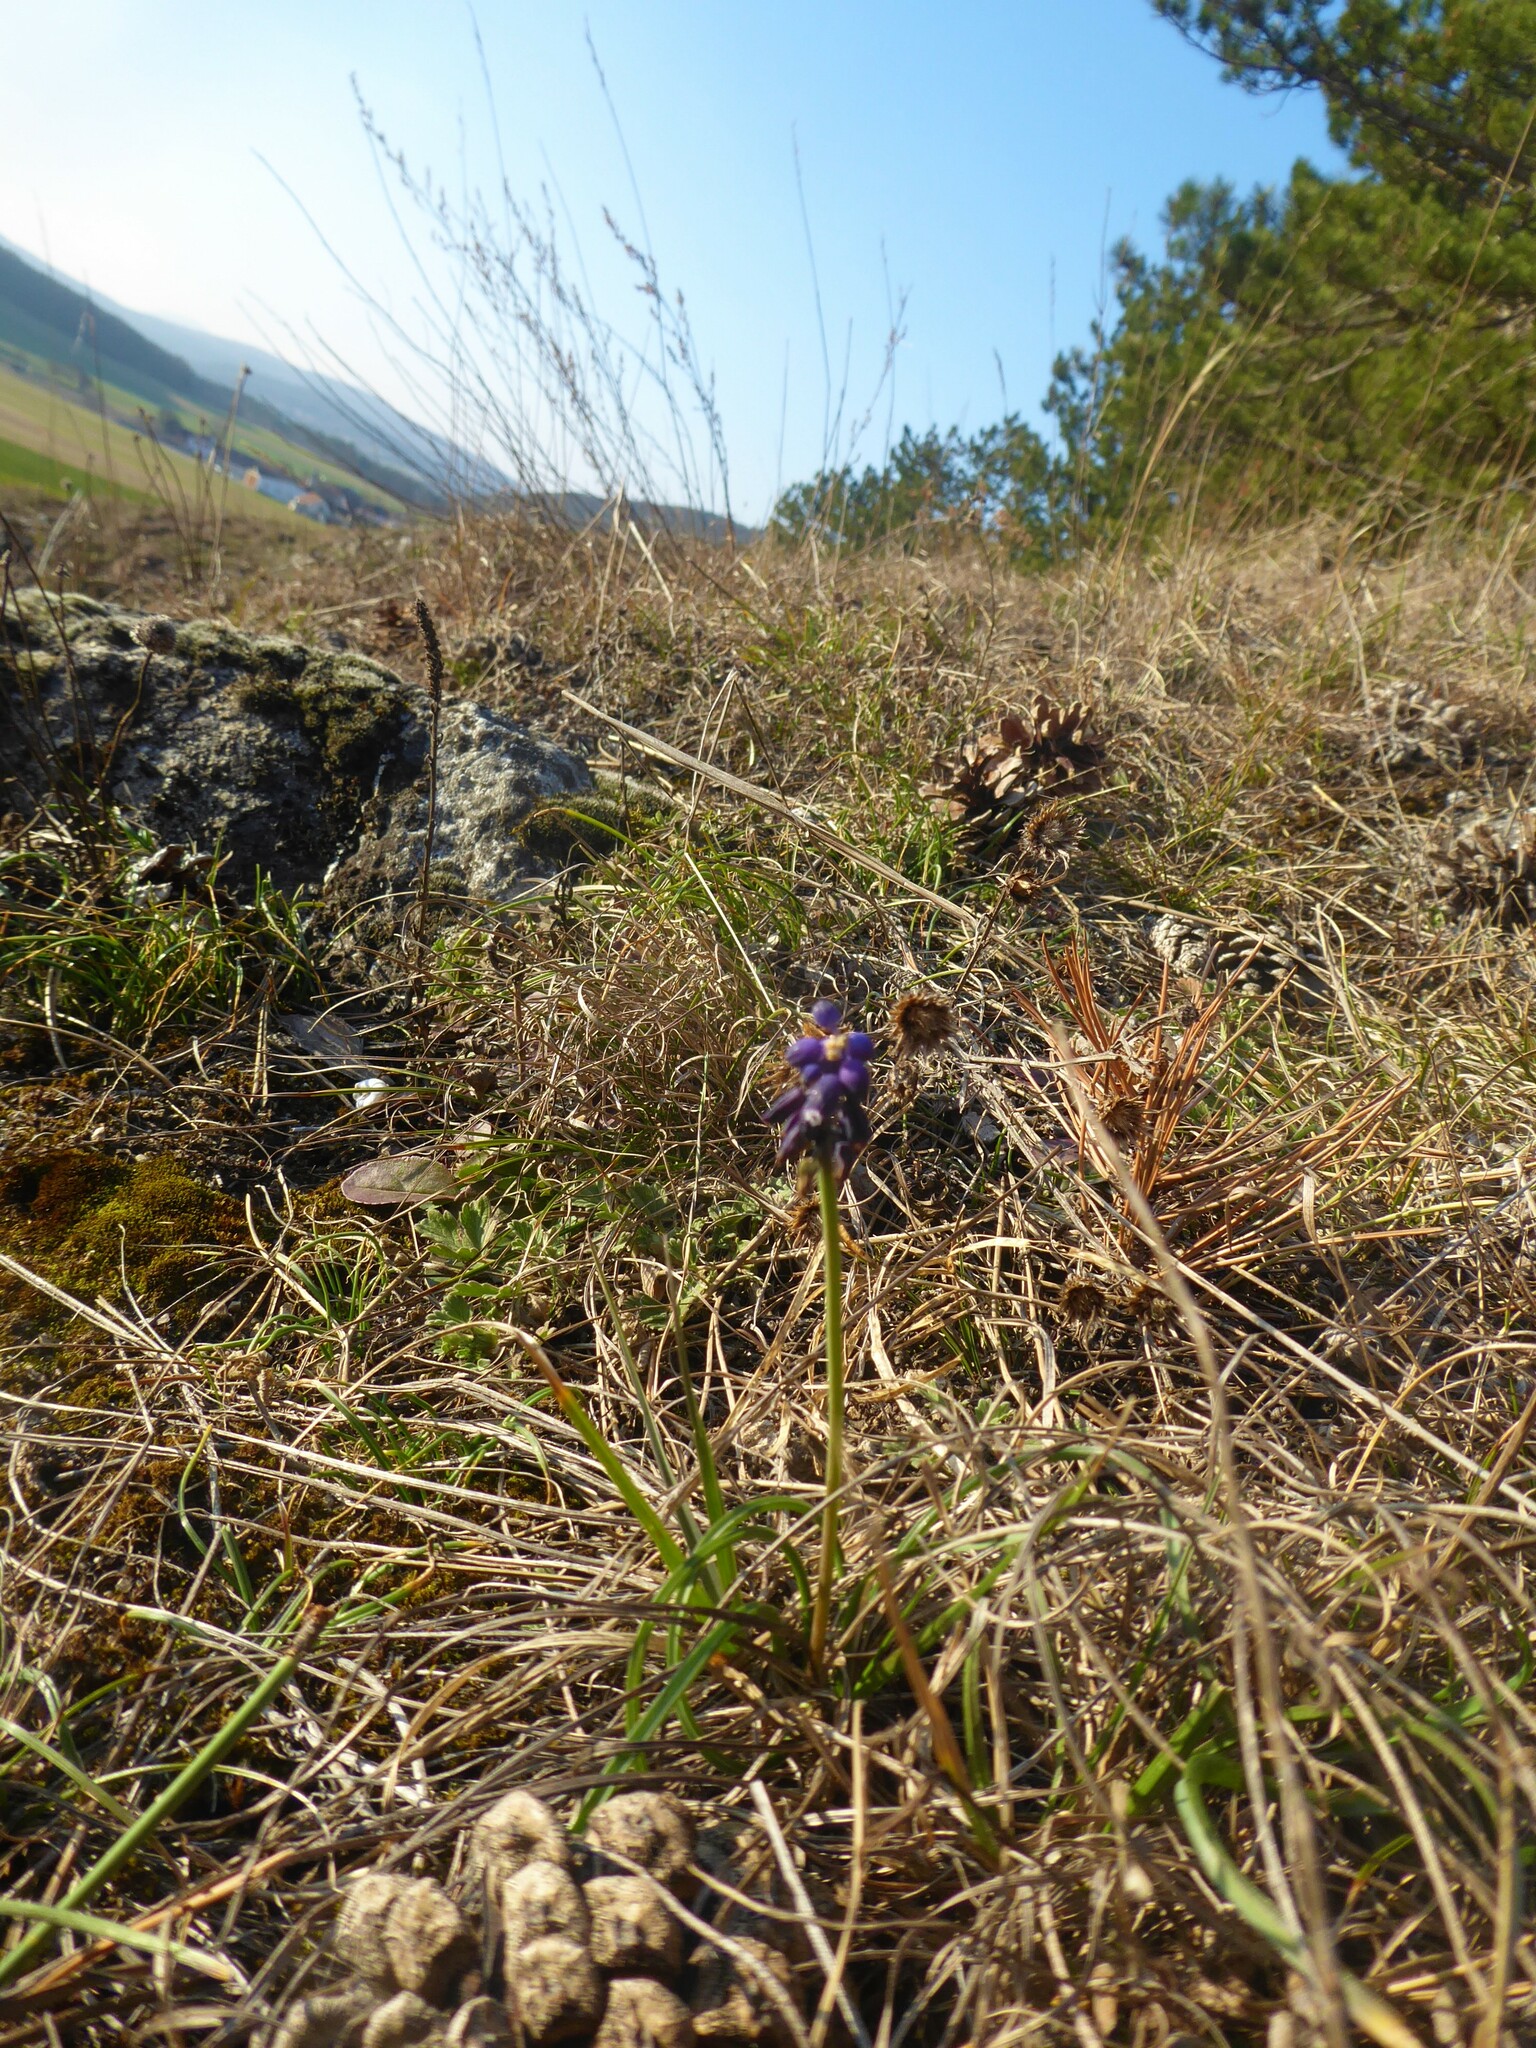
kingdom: Plantae
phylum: Tracheophyta
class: Liliopsida
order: Asparagales
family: Asparagaceae
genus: Muscari
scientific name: Muscari neglectum
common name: Grape-hyacinth
